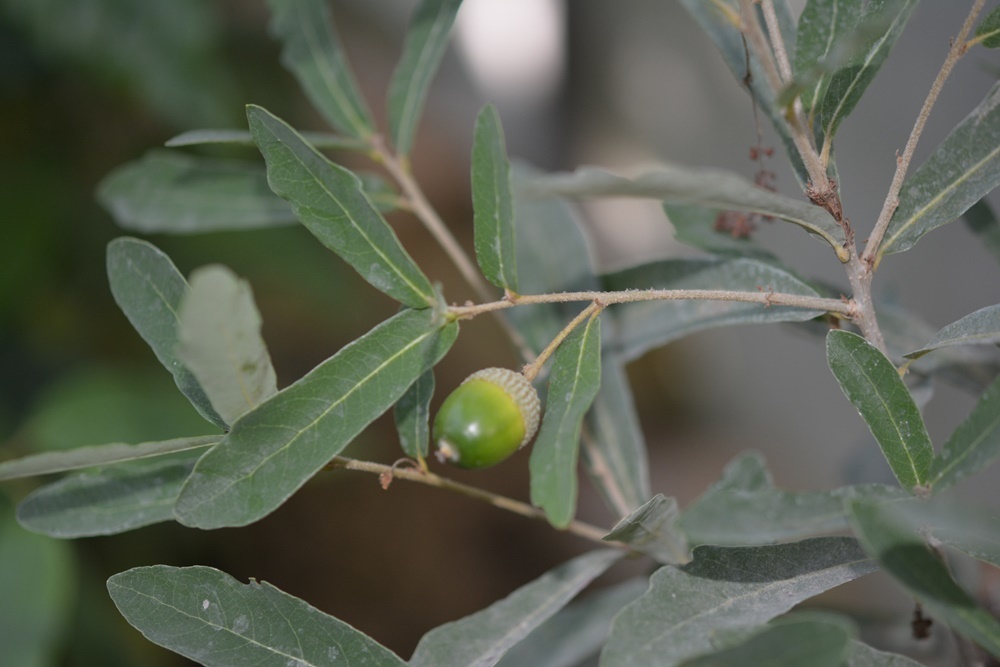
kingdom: Plantae
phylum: Tracheophyta
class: Magnoliopsida
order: Fagales
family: Fagaceae
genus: Quercus
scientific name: Quercus sebifera
